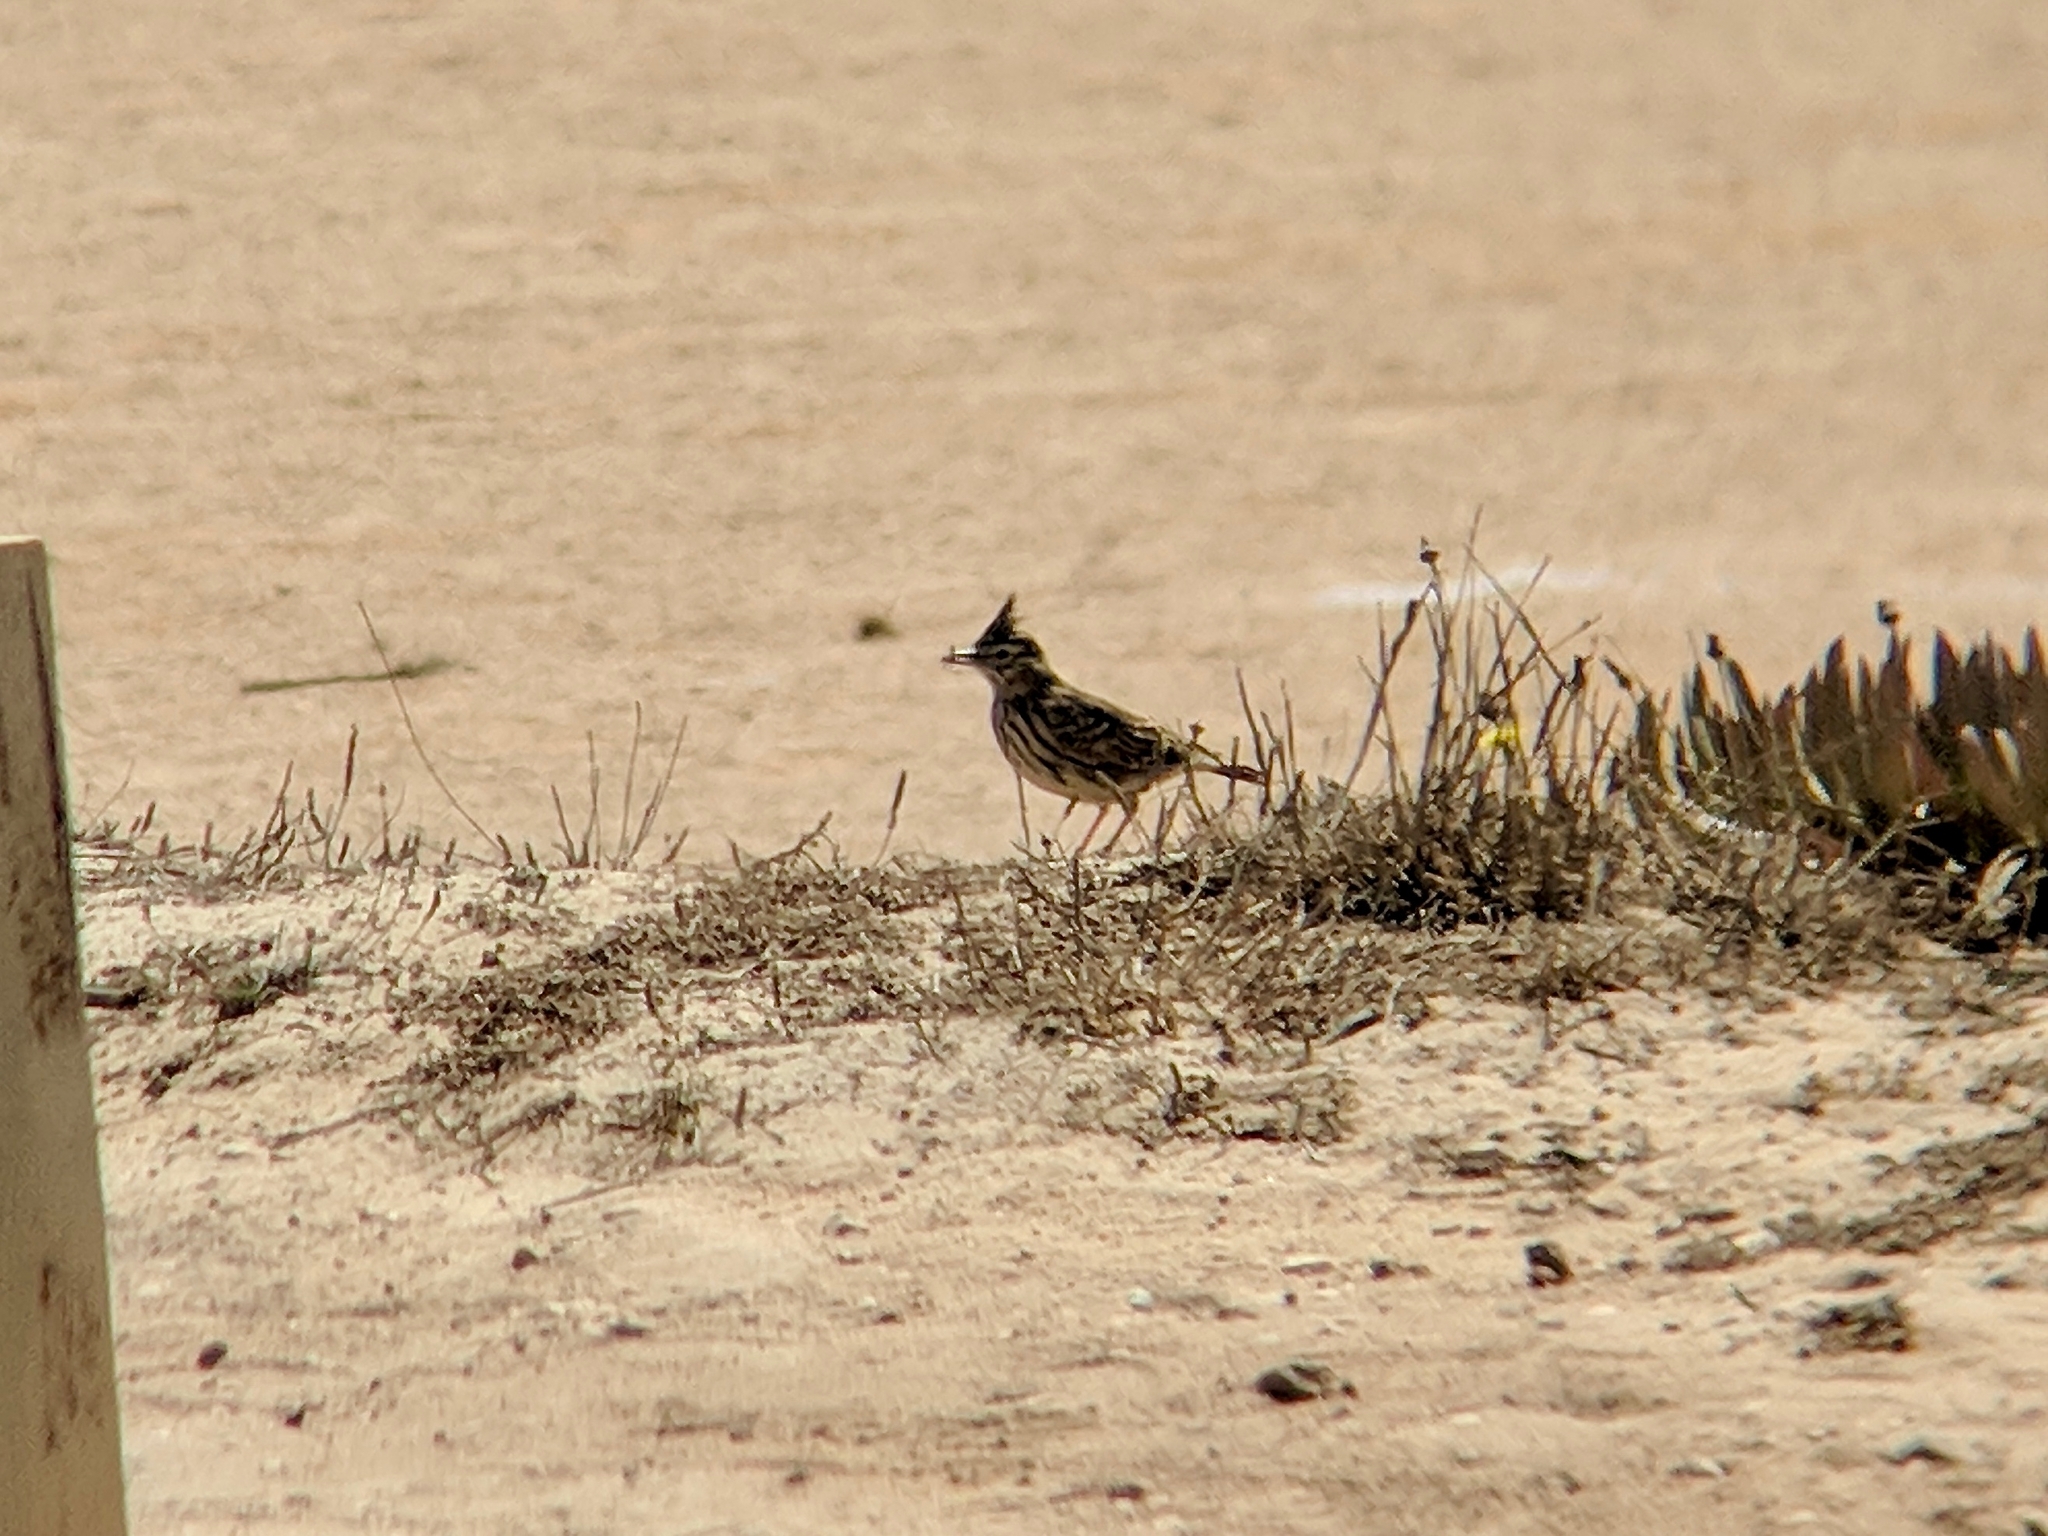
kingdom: Animalia
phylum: Chordata
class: Aves
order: Passeriformes
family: Alaudidae
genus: Galerida
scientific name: Galerida cristata
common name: Crested lark
